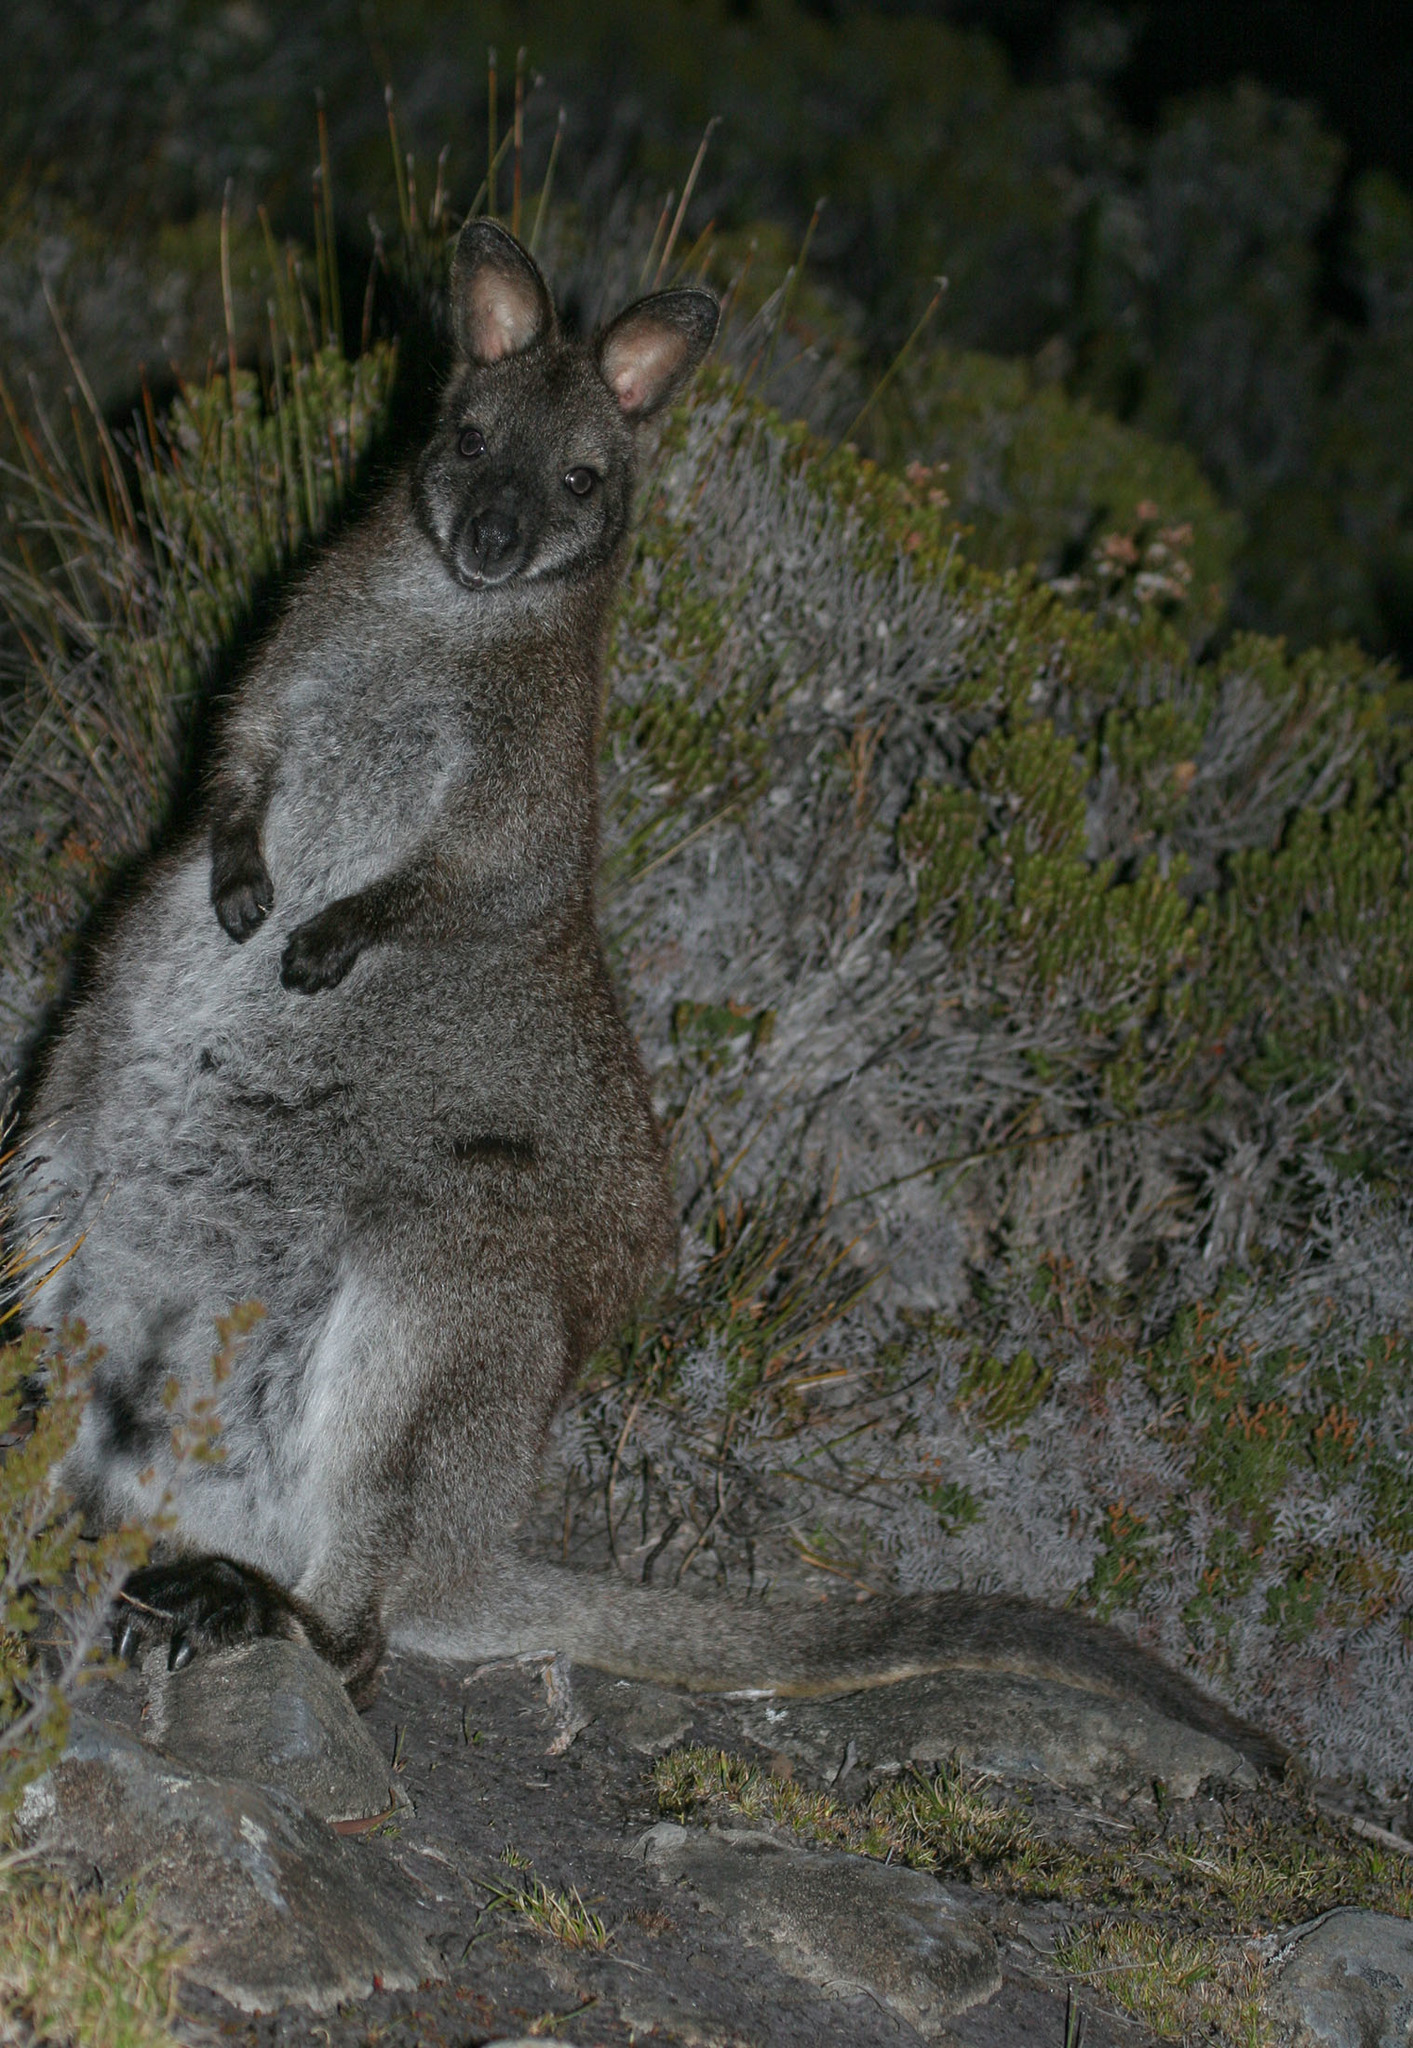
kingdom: Animalia
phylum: Chordata
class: Mammalia
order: Diprotodontia
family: Macropodidae
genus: Notamacropus
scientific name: Notamacropus rufogriseus
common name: Red-necked wallaby
